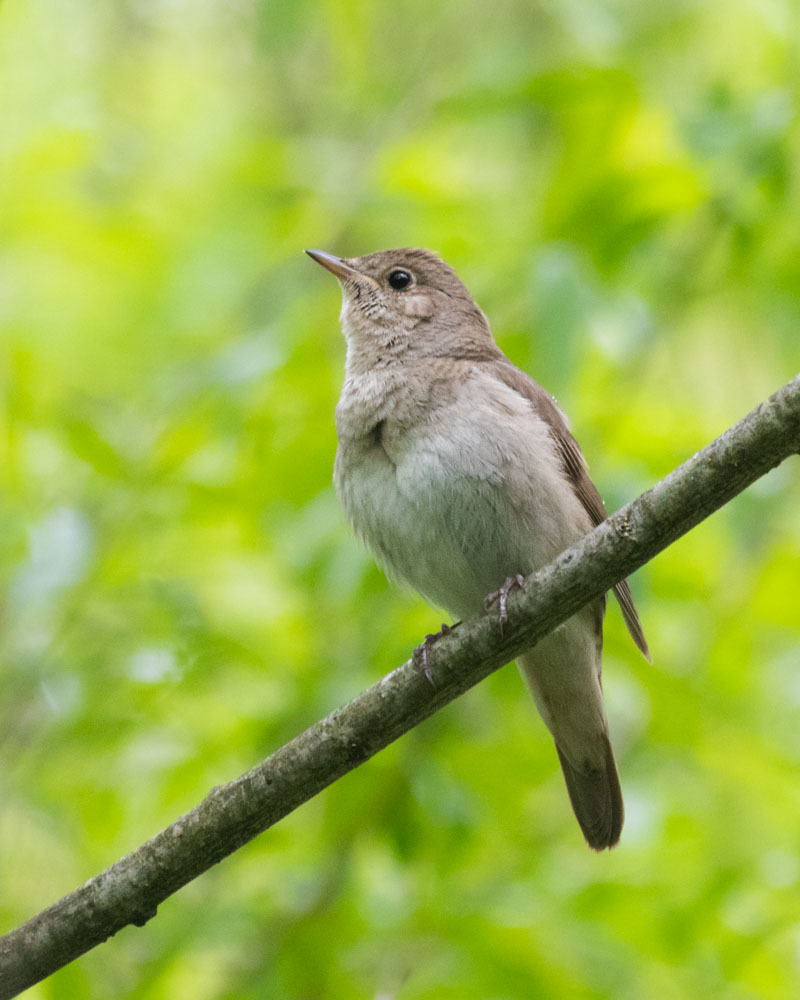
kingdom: Animalia
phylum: Chordata
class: Aves
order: Passeriformes
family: Muscicapidae
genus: Luscinia
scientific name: Luscinia luscinia
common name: Thrush nightingale
